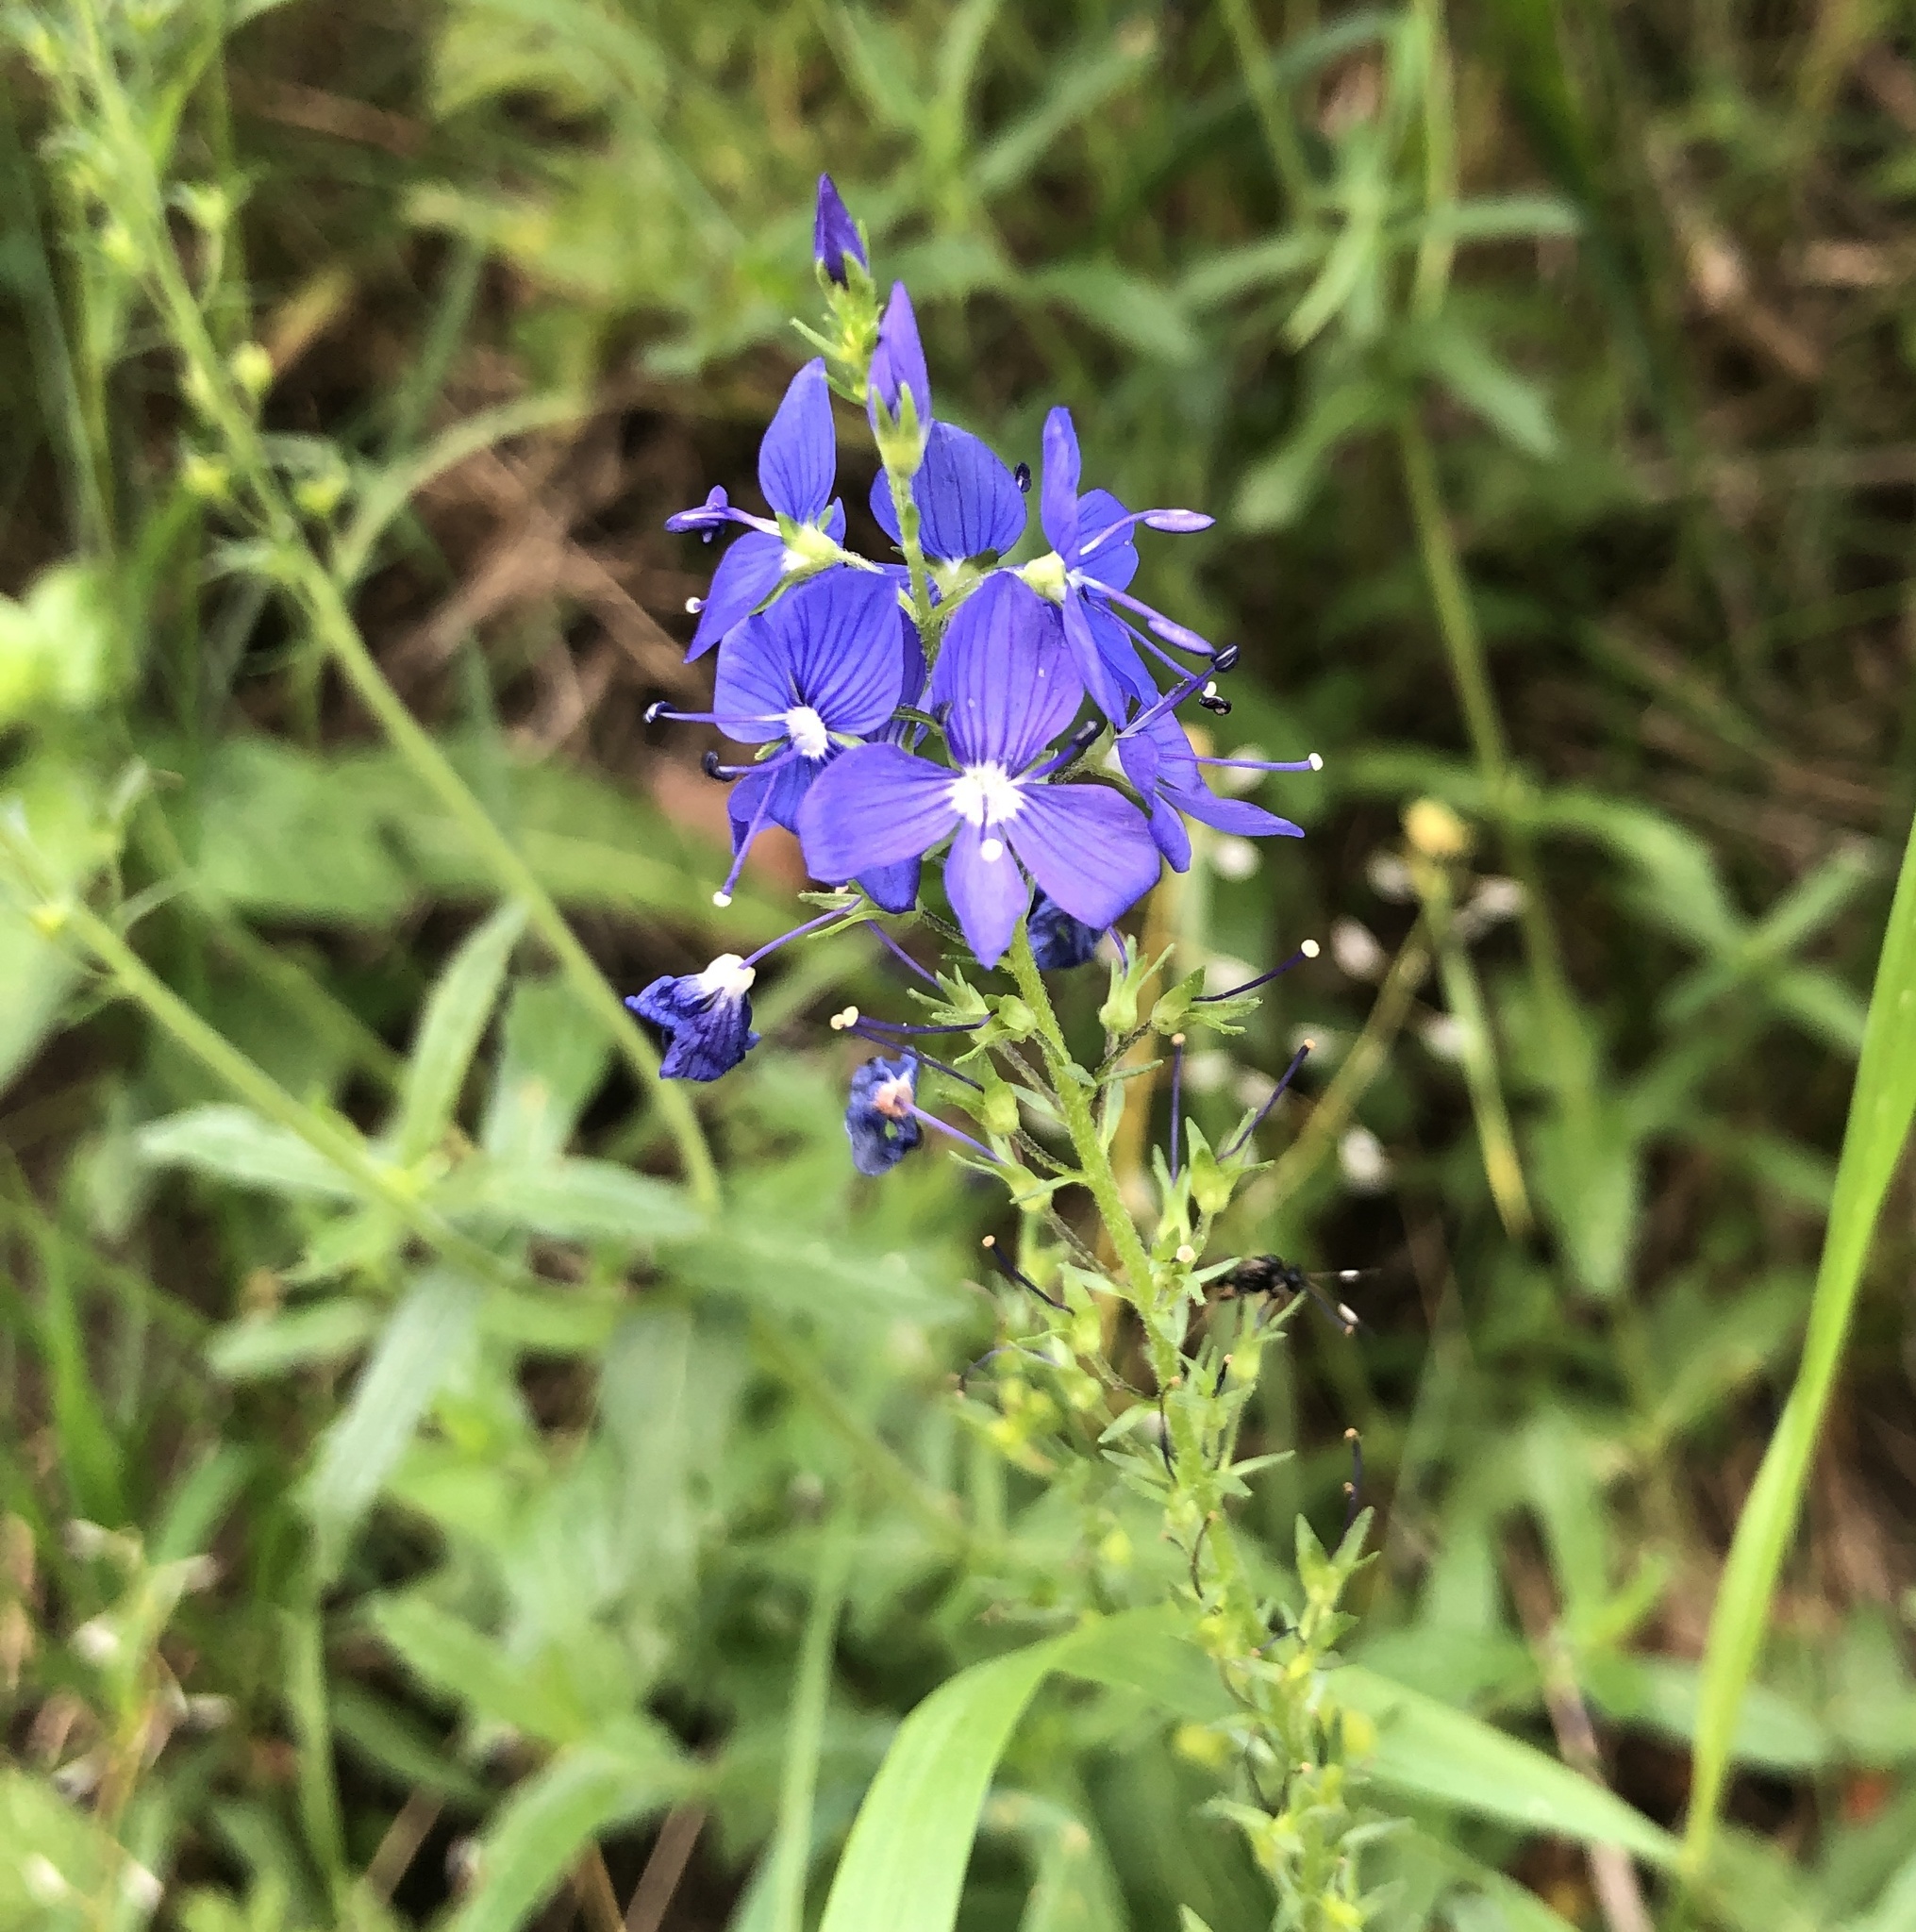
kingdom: Plantae
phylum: Tracheophyta
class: Magnoliopsida
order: Lamiales
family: Plantaginaceae
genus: Veronica
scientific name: Veronica teucrium
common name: Large speedwell
